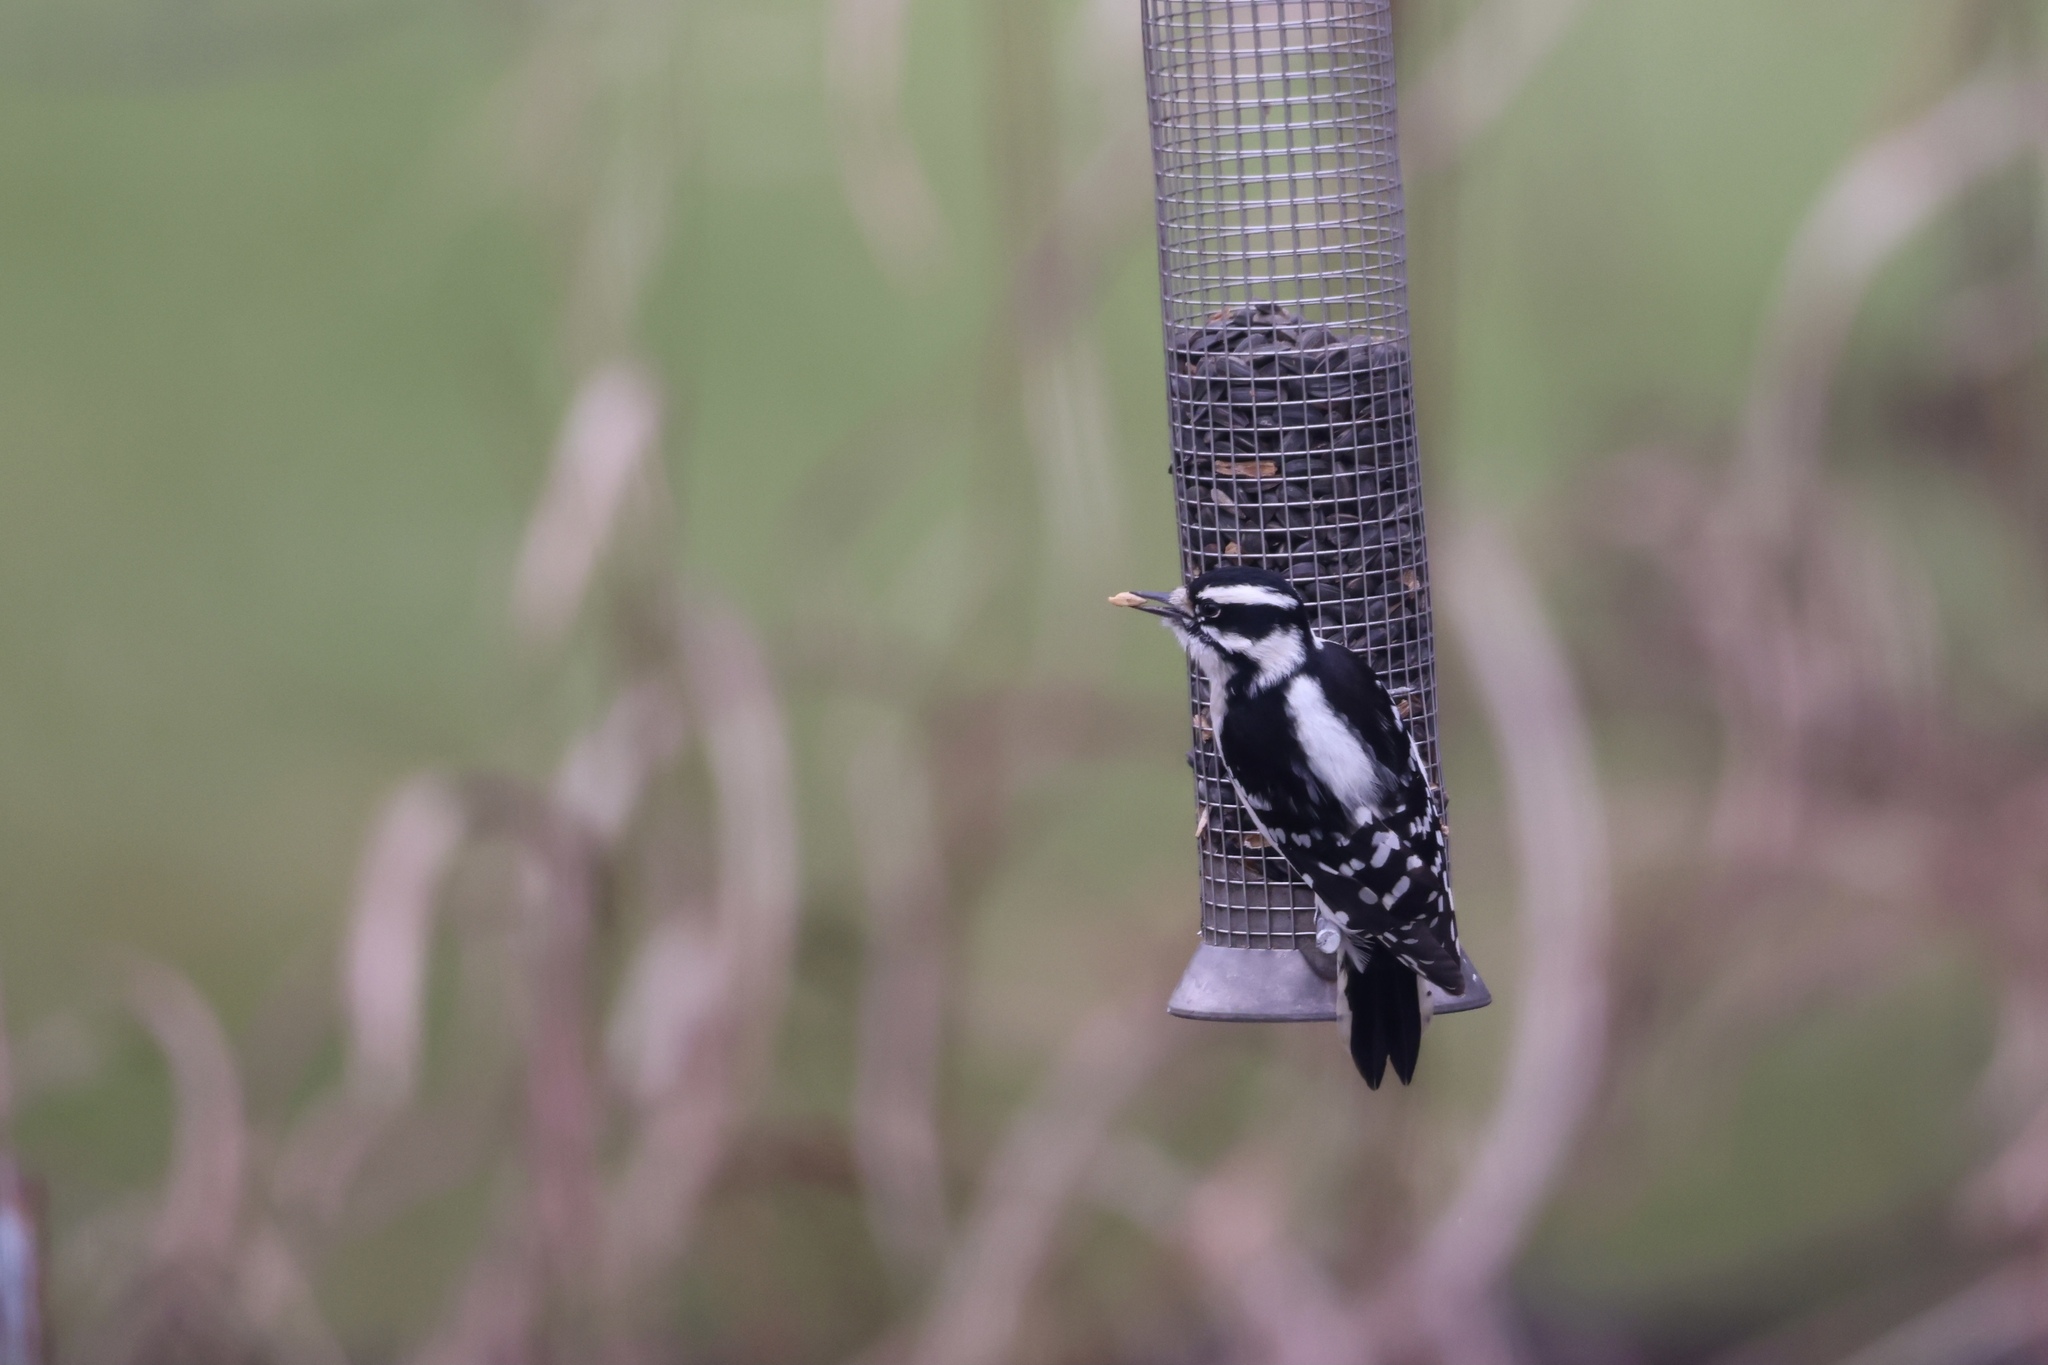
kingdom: Animalia
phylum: Chordata
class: Aves
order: Piciformes
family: Picidae
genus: Dryobates
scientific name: Dryobates pubescens
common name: Downy woodpecker
